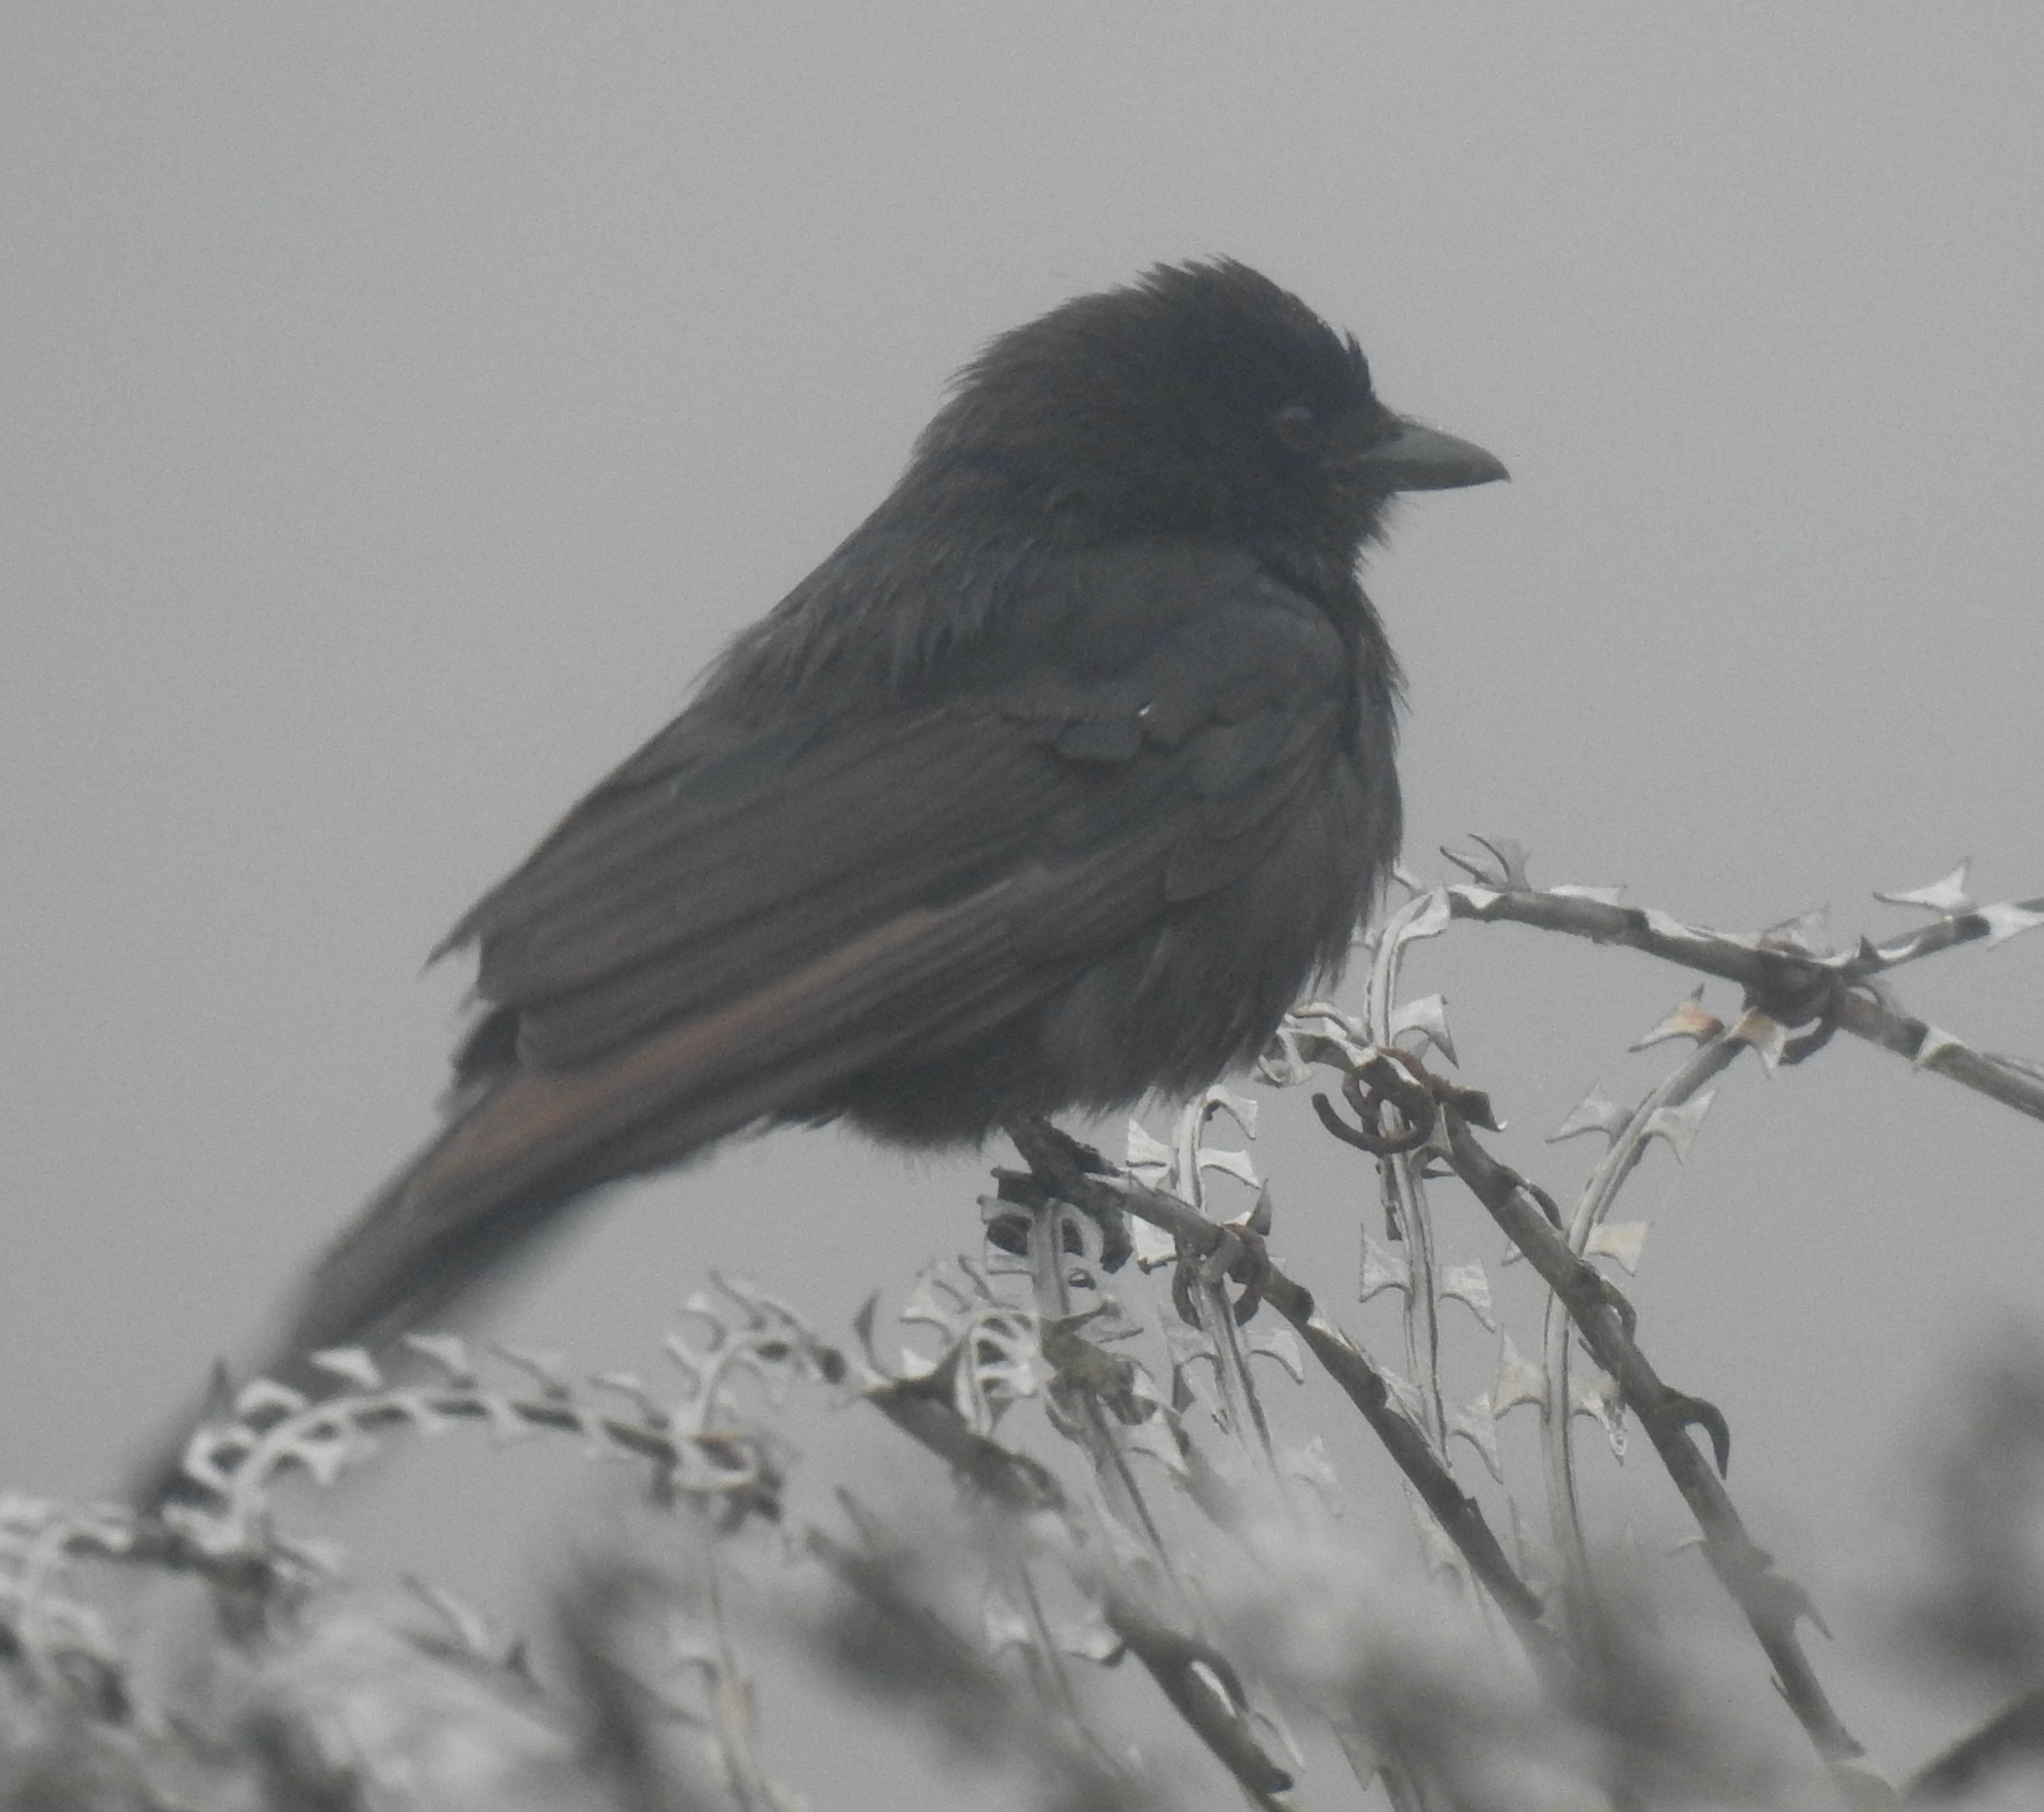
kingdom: Animalia
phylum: Chordata
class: Aves
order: Passeriformes
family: Dicruridae
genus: Dicrurus
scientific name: Dicrurus adsimilis
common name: Fork-tailed drongo
